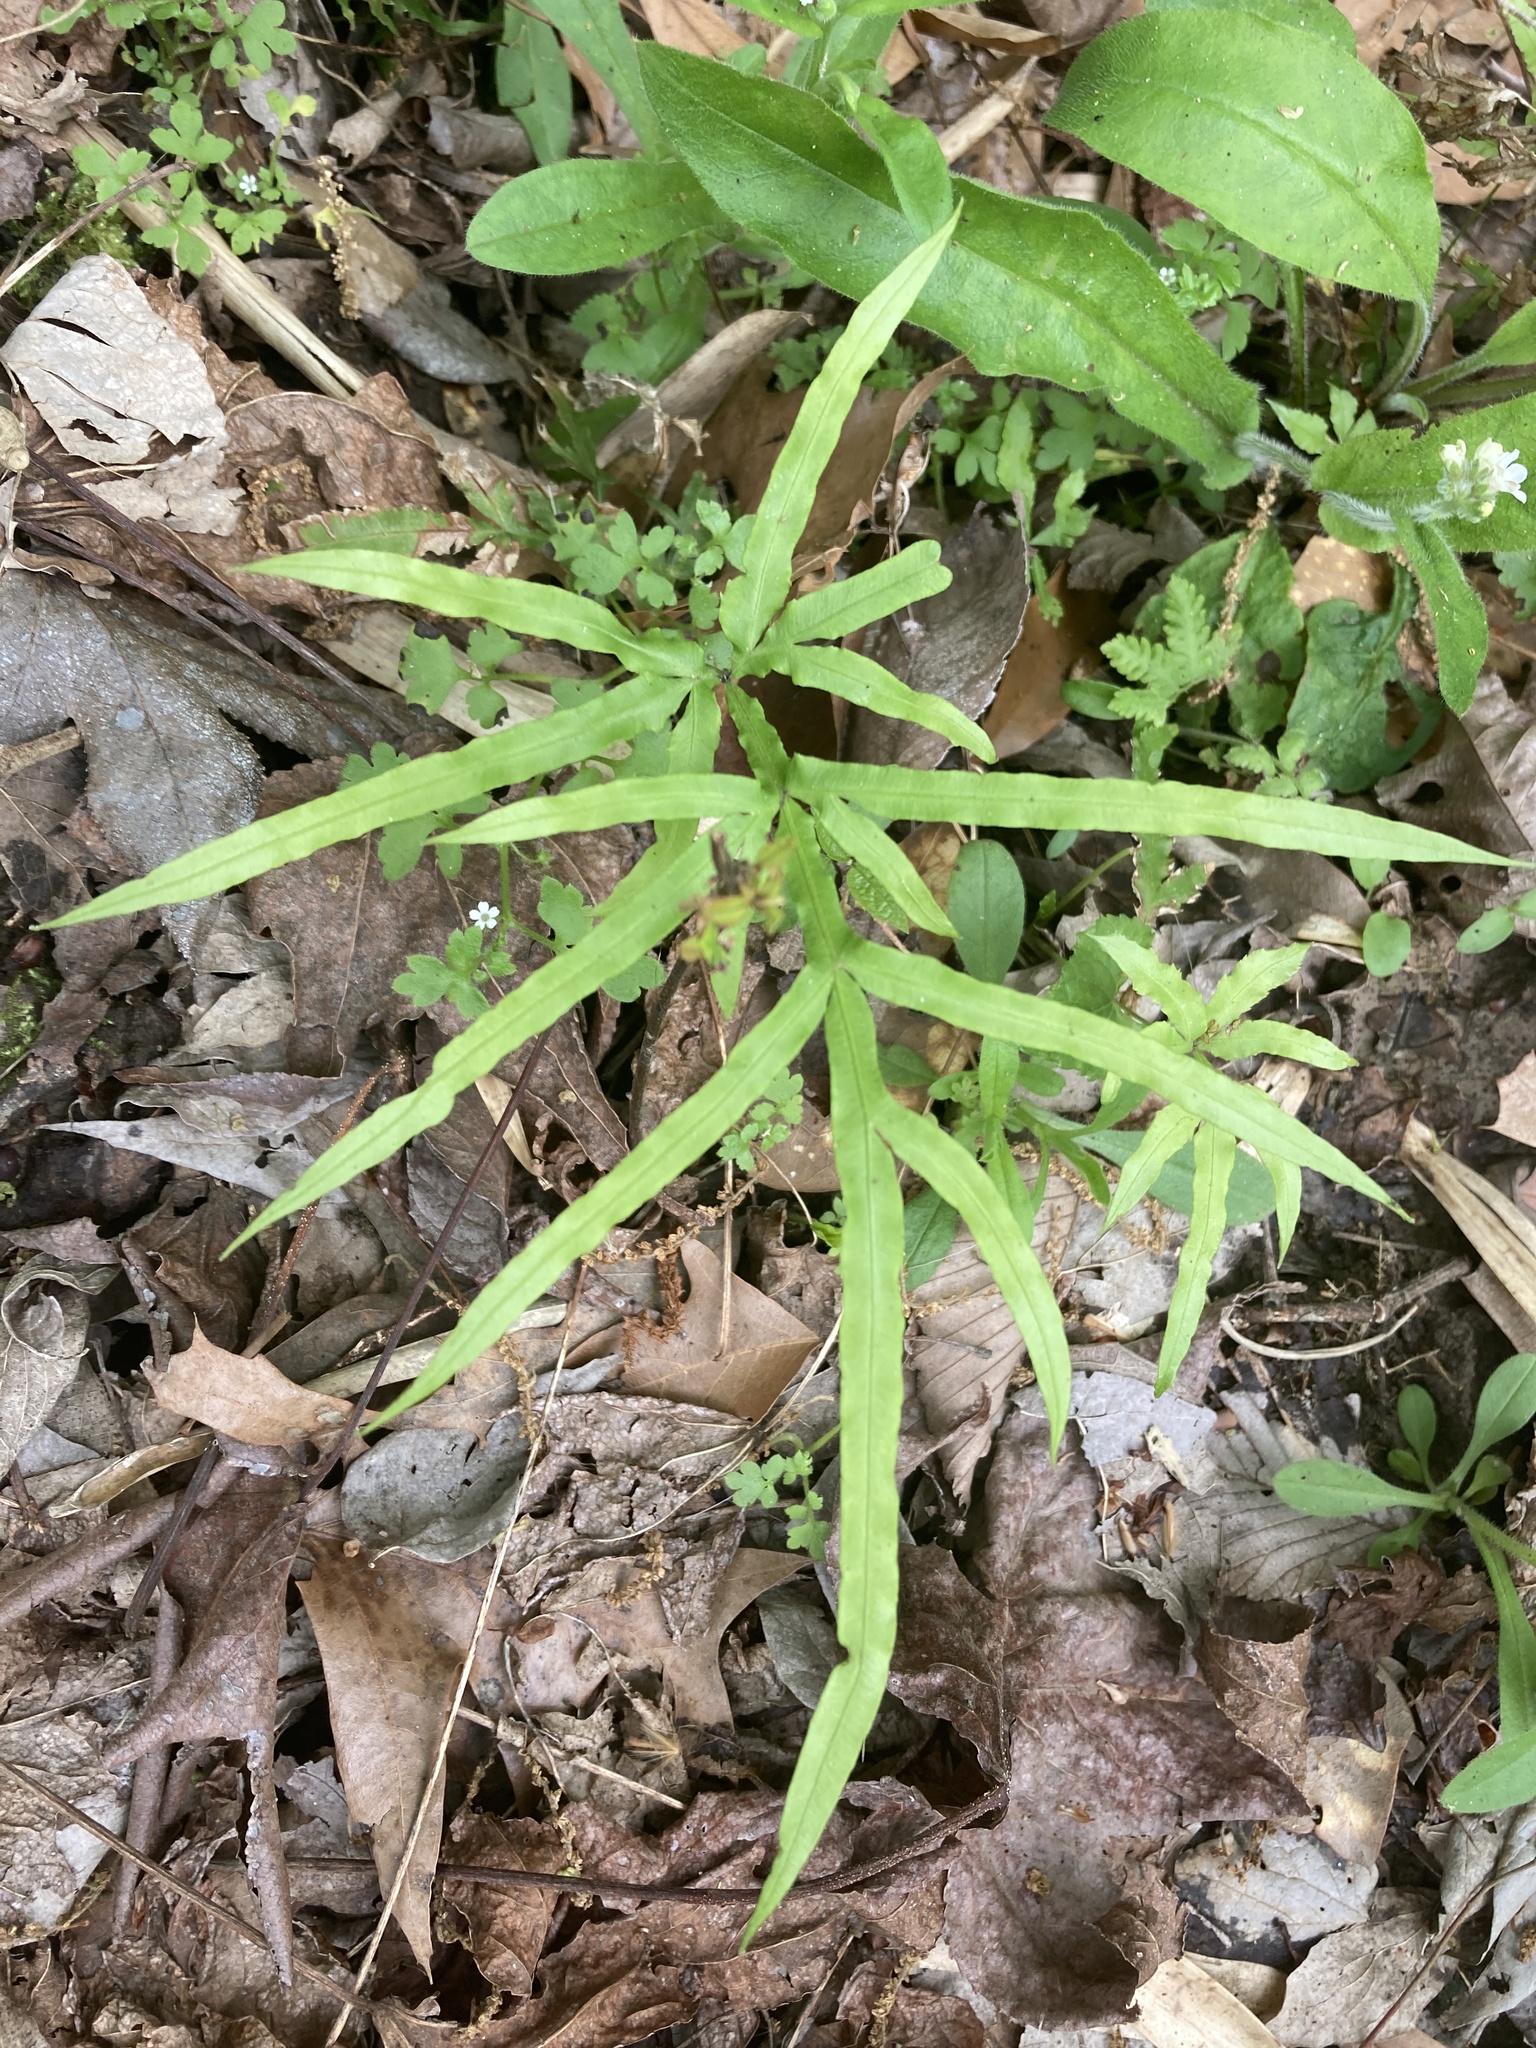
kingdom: Plantae
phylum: Tracheophyta
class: Polypodiopsida
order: Polypodiales
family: Pteridaceae
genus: Pteris
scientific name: Pteris multifida
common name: Spider brake
